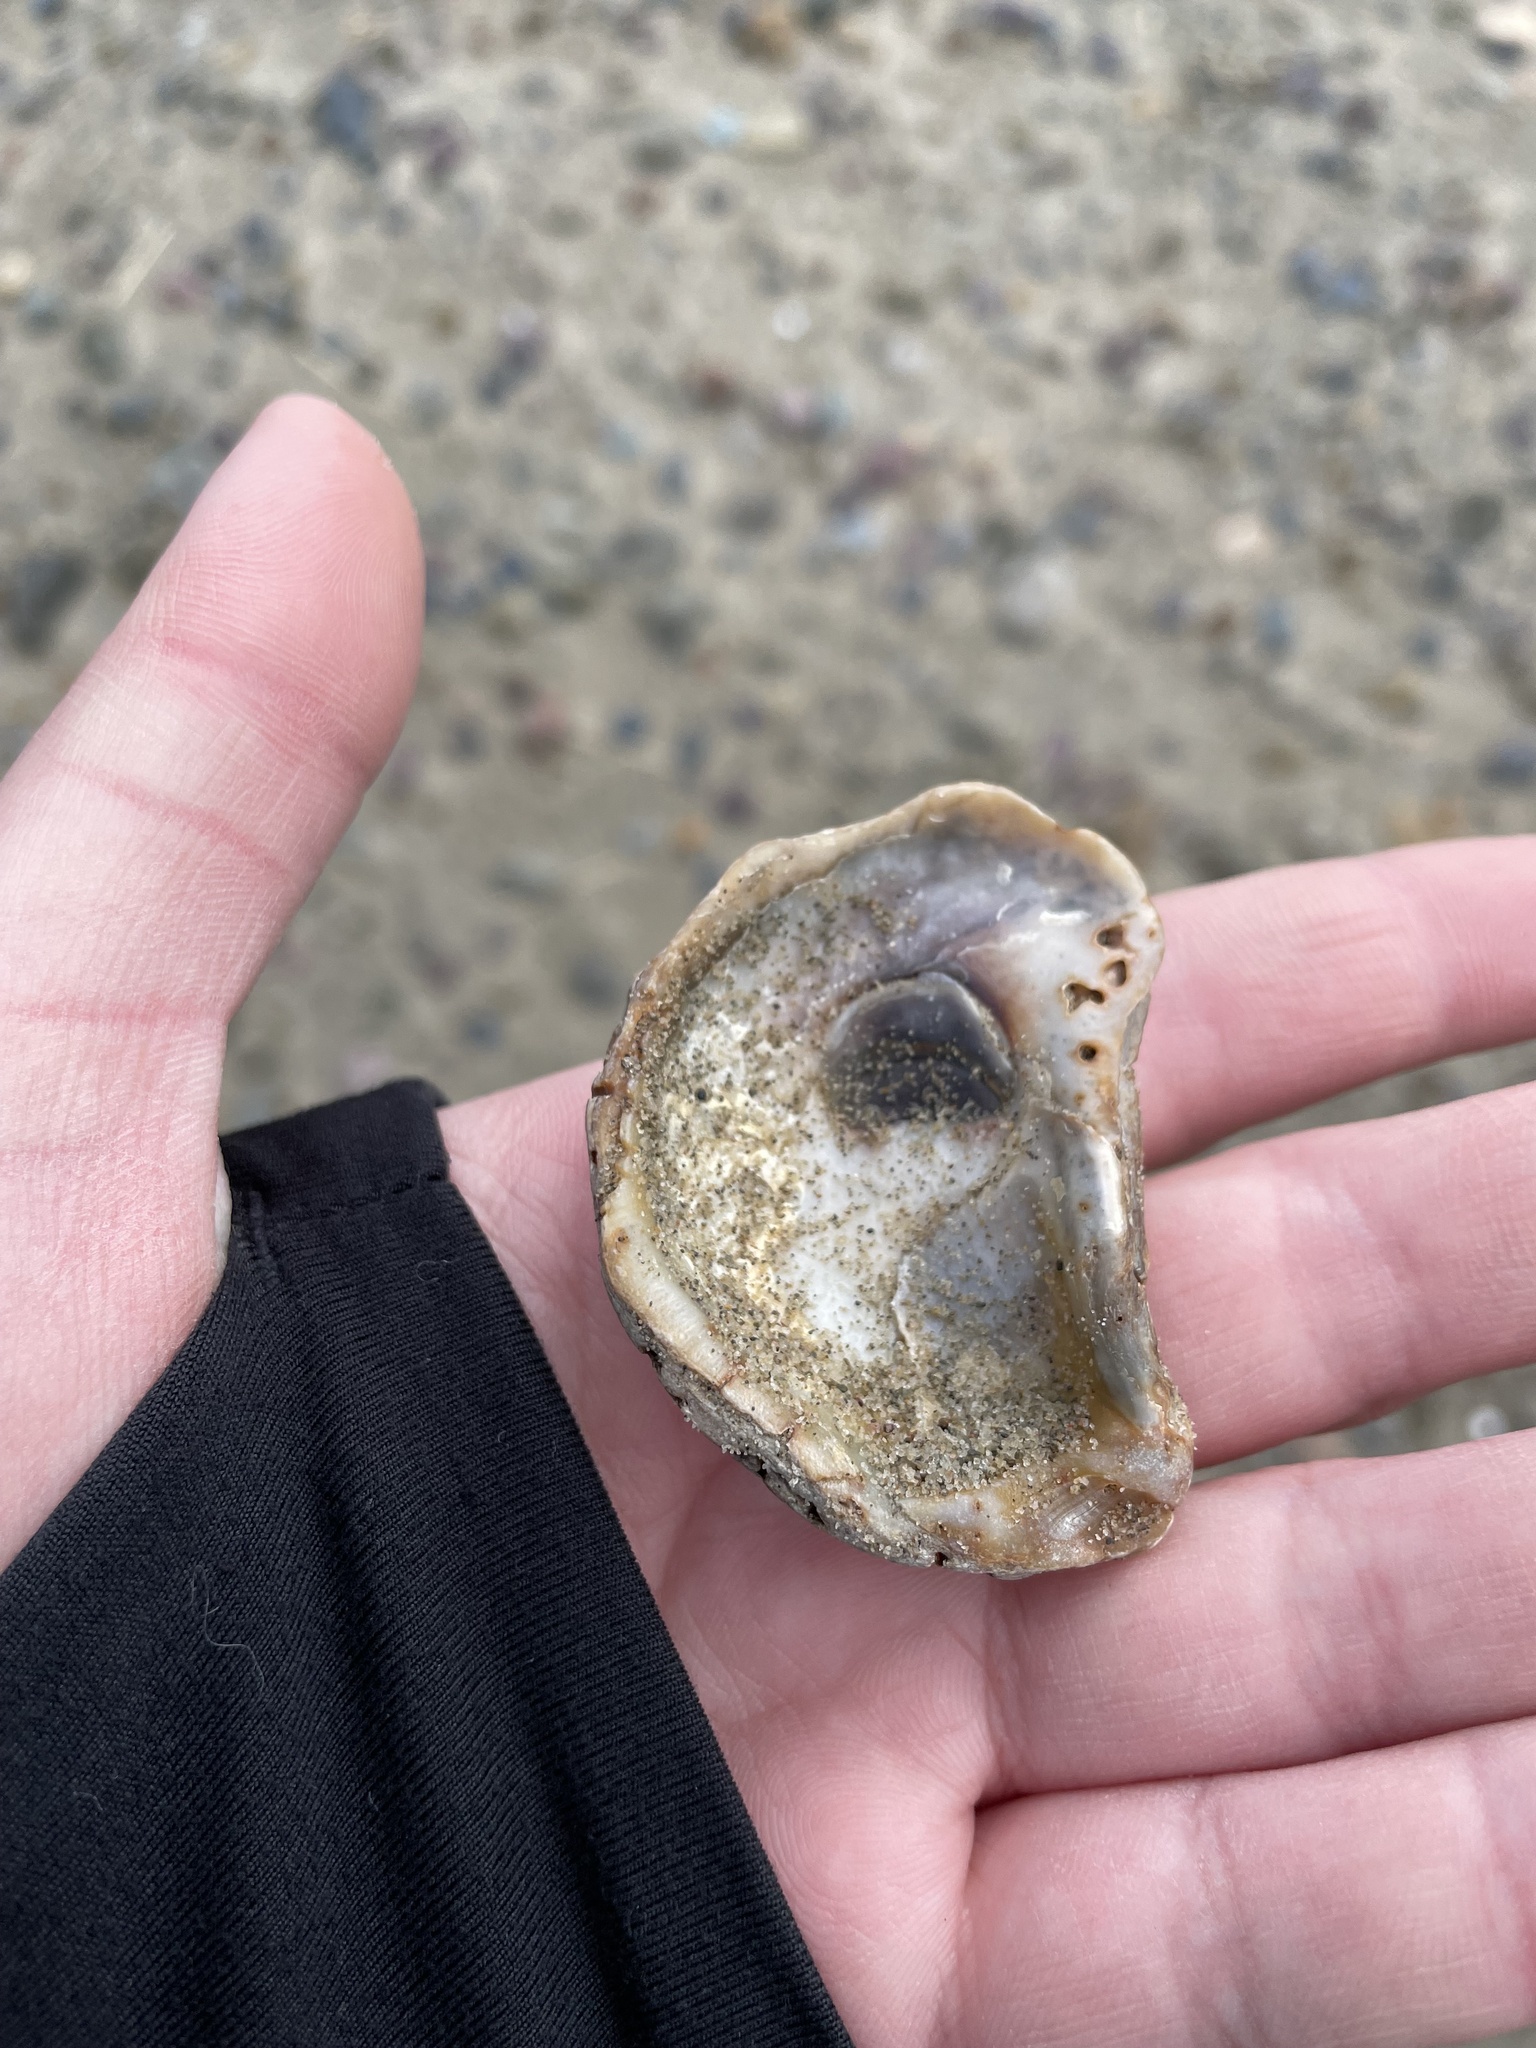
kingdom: Animalia
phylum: Mollusca
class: Bivalvia
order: Ostreida
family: Ostreidae
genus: Crassostrea
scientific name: Crassostrea virginica
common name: American oyster
